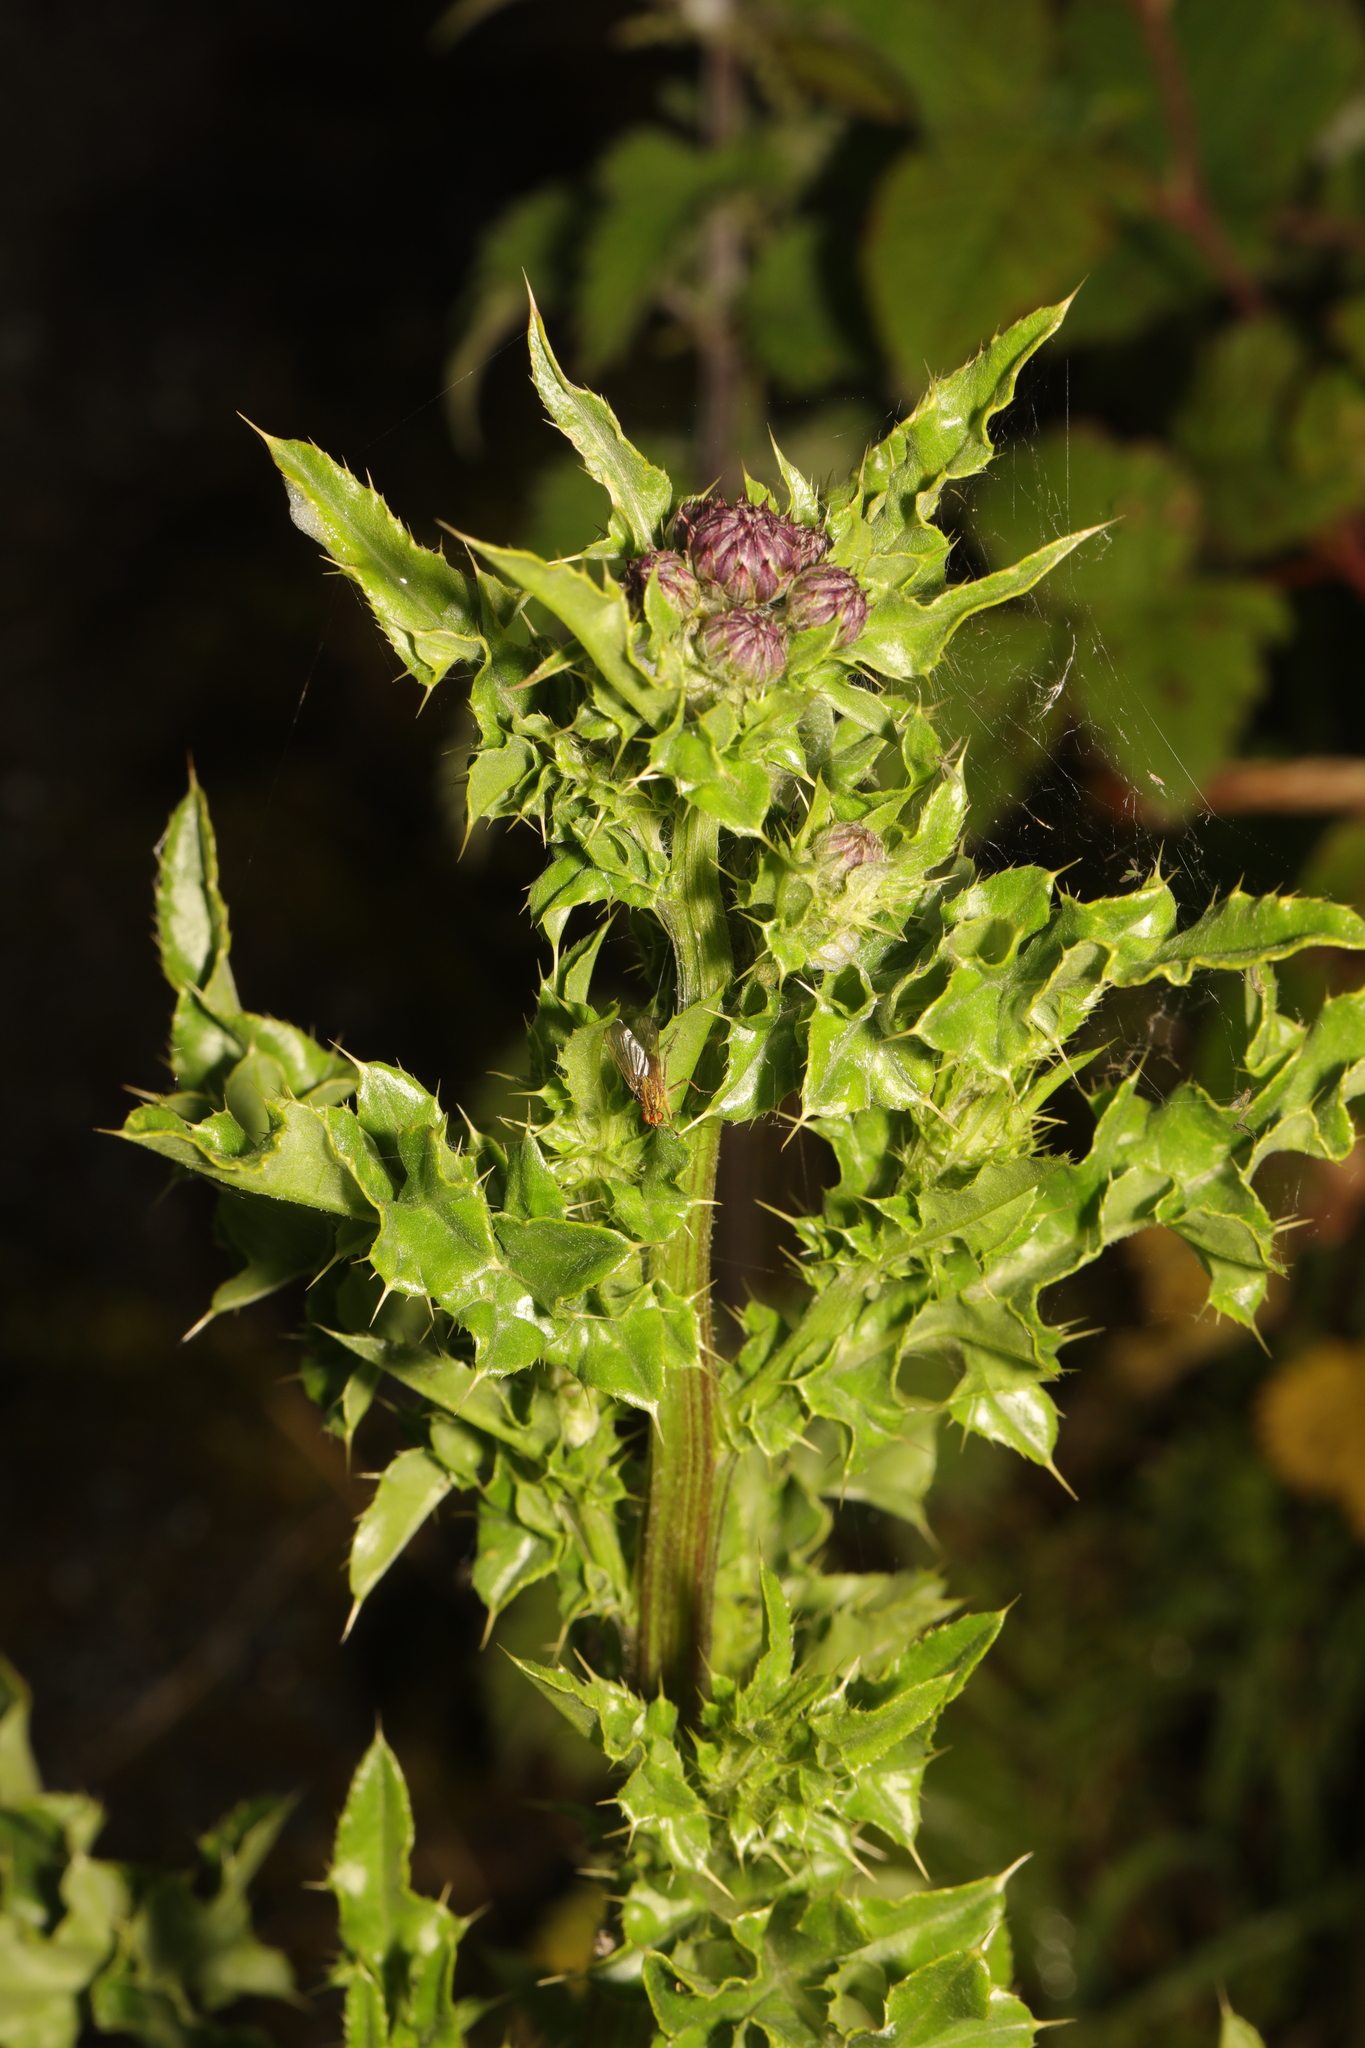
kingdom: Plantae
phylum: Tracheophyta
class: Magnoliopsida
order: Asterales
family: Asteraceae
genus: Cirsium
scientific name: Cirsium arvense
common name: Creeping thistle
